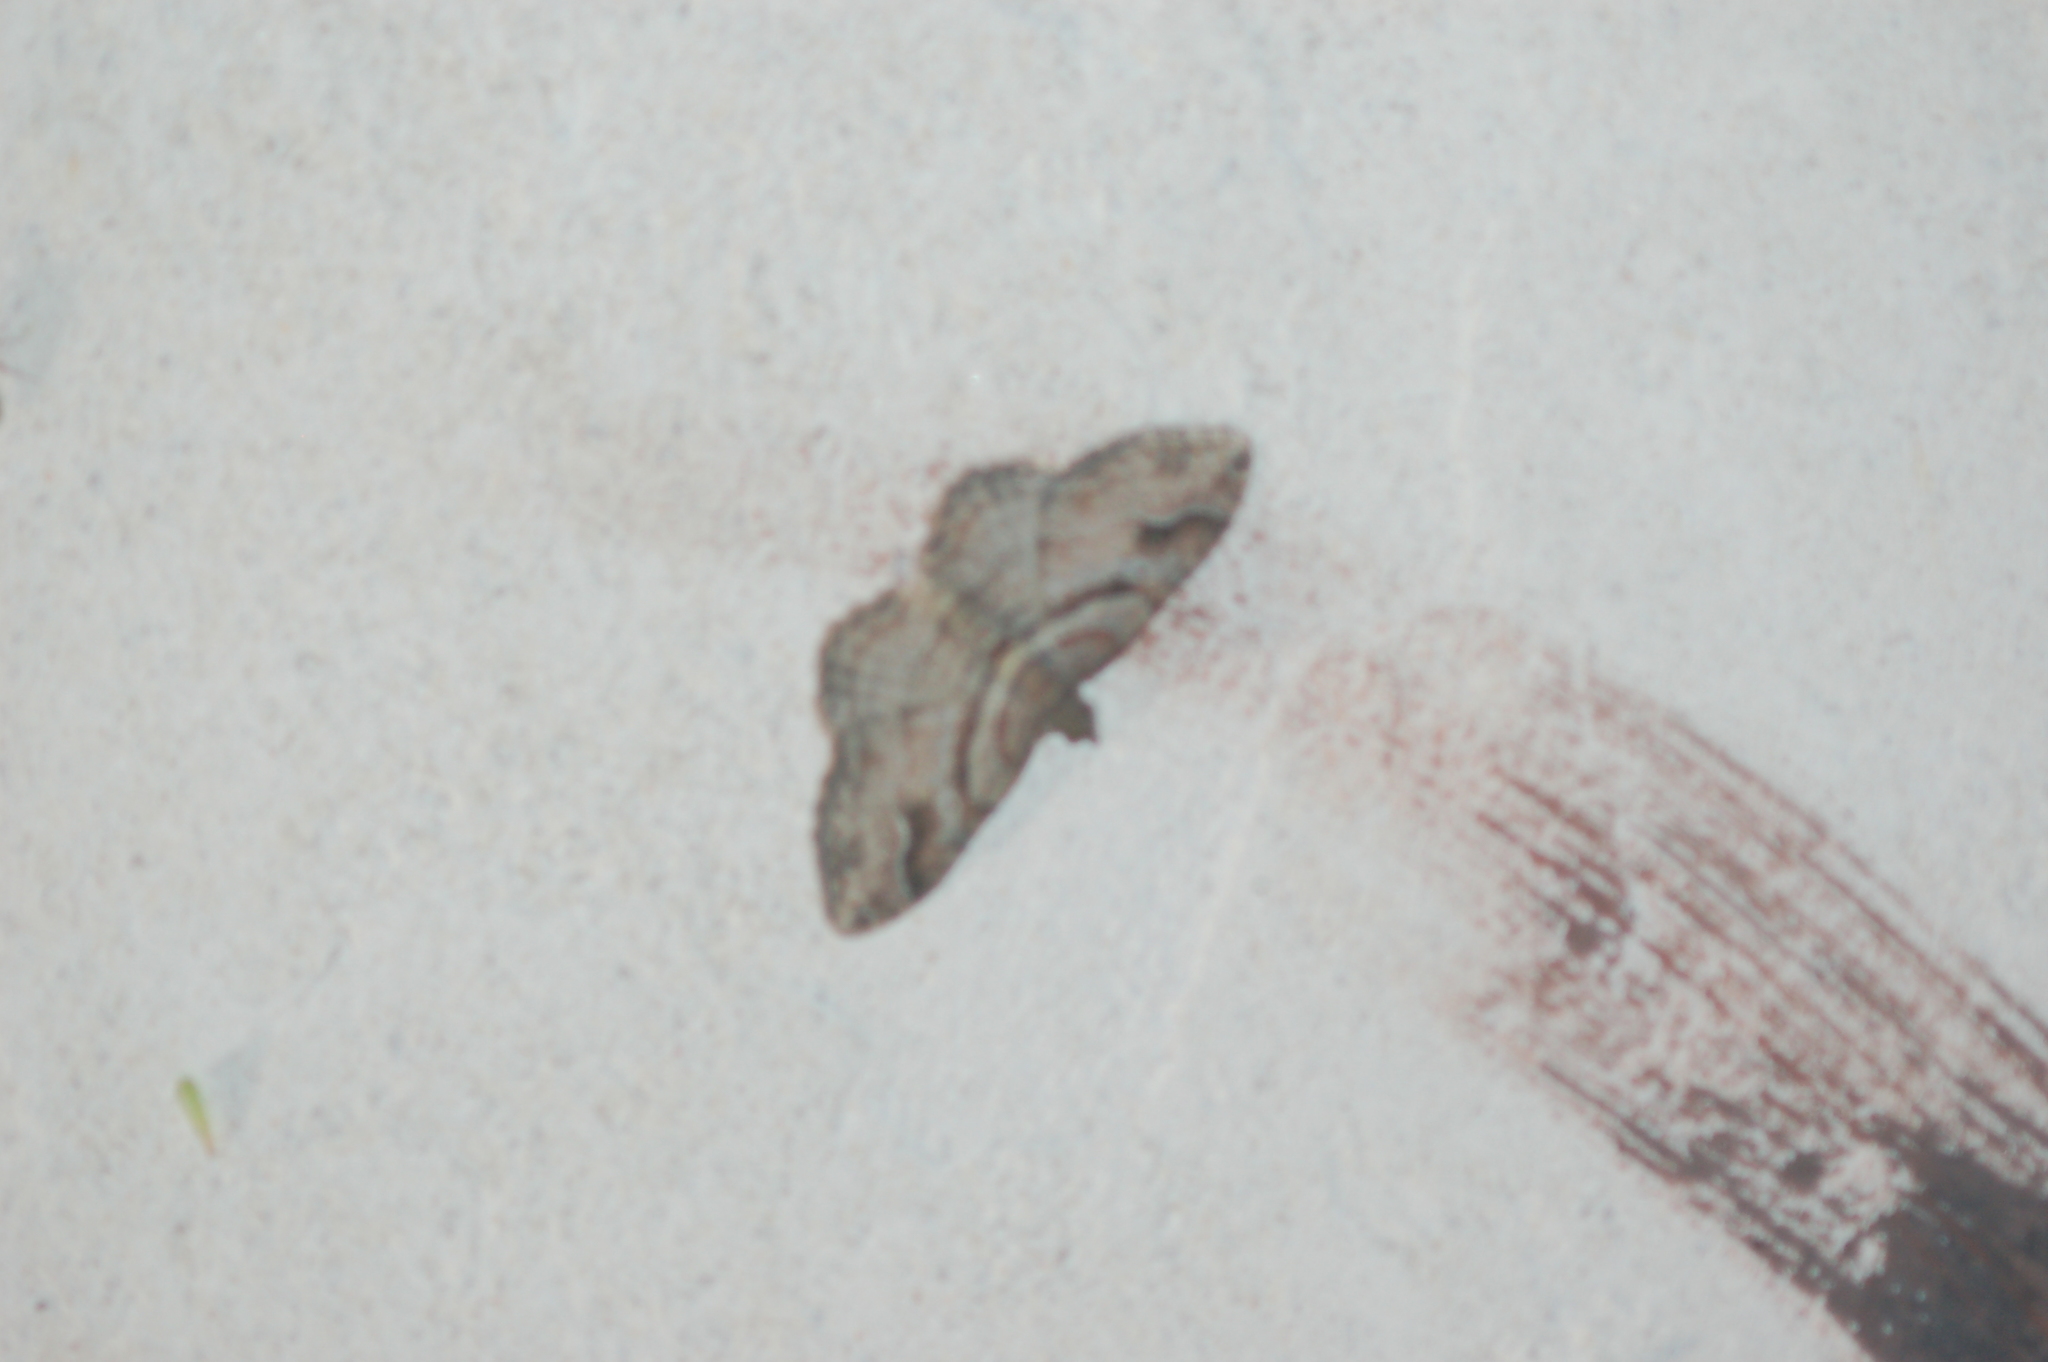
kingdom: Animalia
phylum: Arthropoda
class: Insecta
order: Lepidoptera
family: Geometridae
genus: Costaconvexa
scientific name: Costaconvexa centrostrigaria
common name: Bent-line carpet
